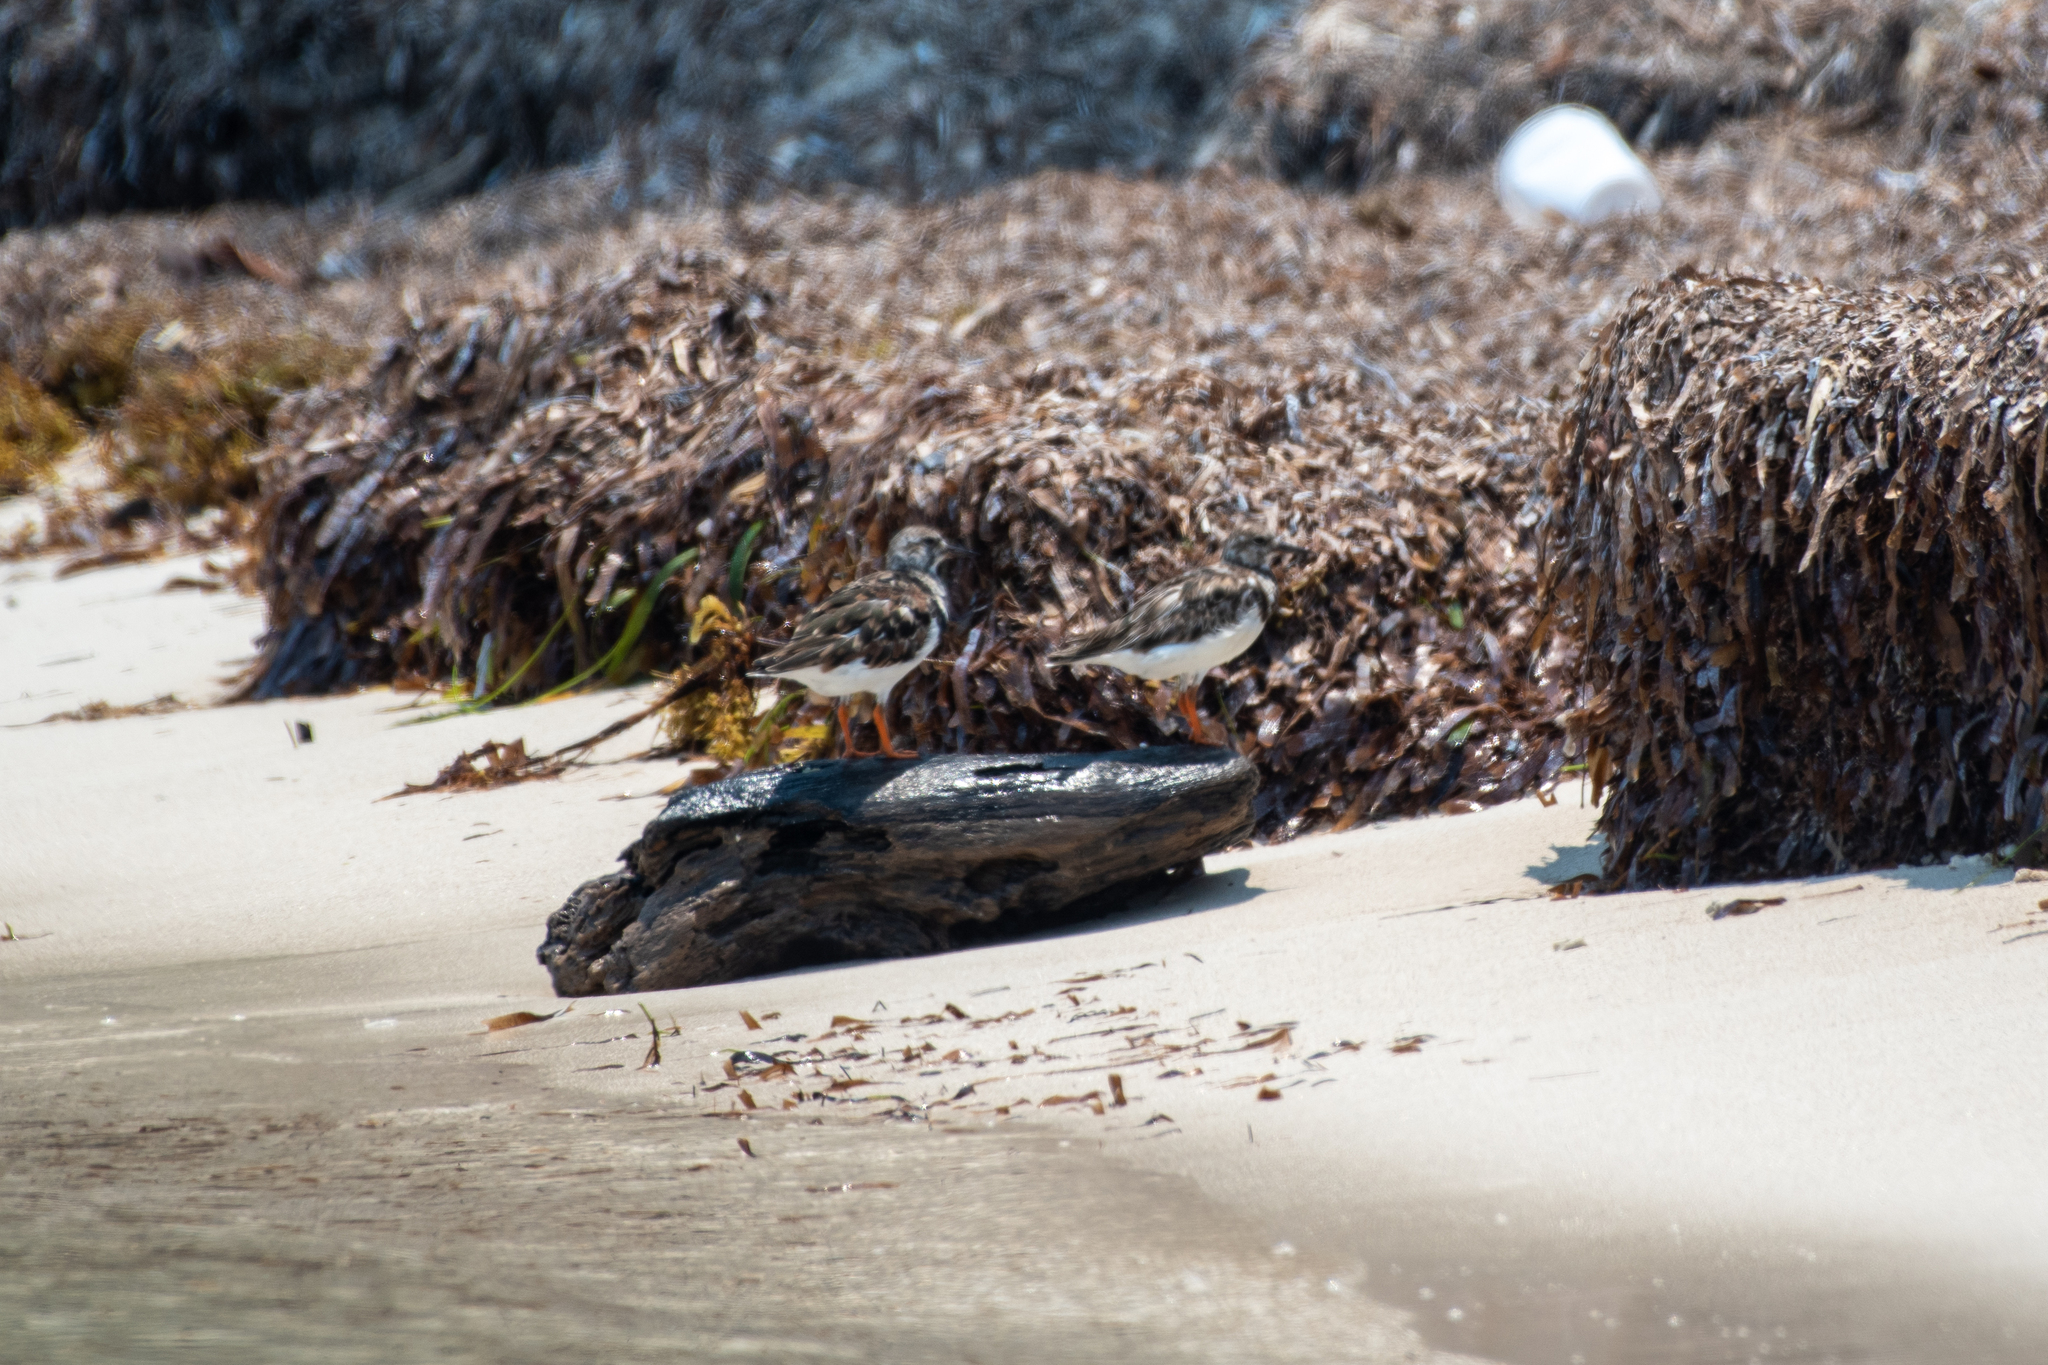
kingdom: Animalia
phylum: Chordata
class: Aves
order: Charadriiformes
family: Scolopacidae
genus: Arenaria
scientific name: Arenaria interpres
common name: Ruddy turnstone
